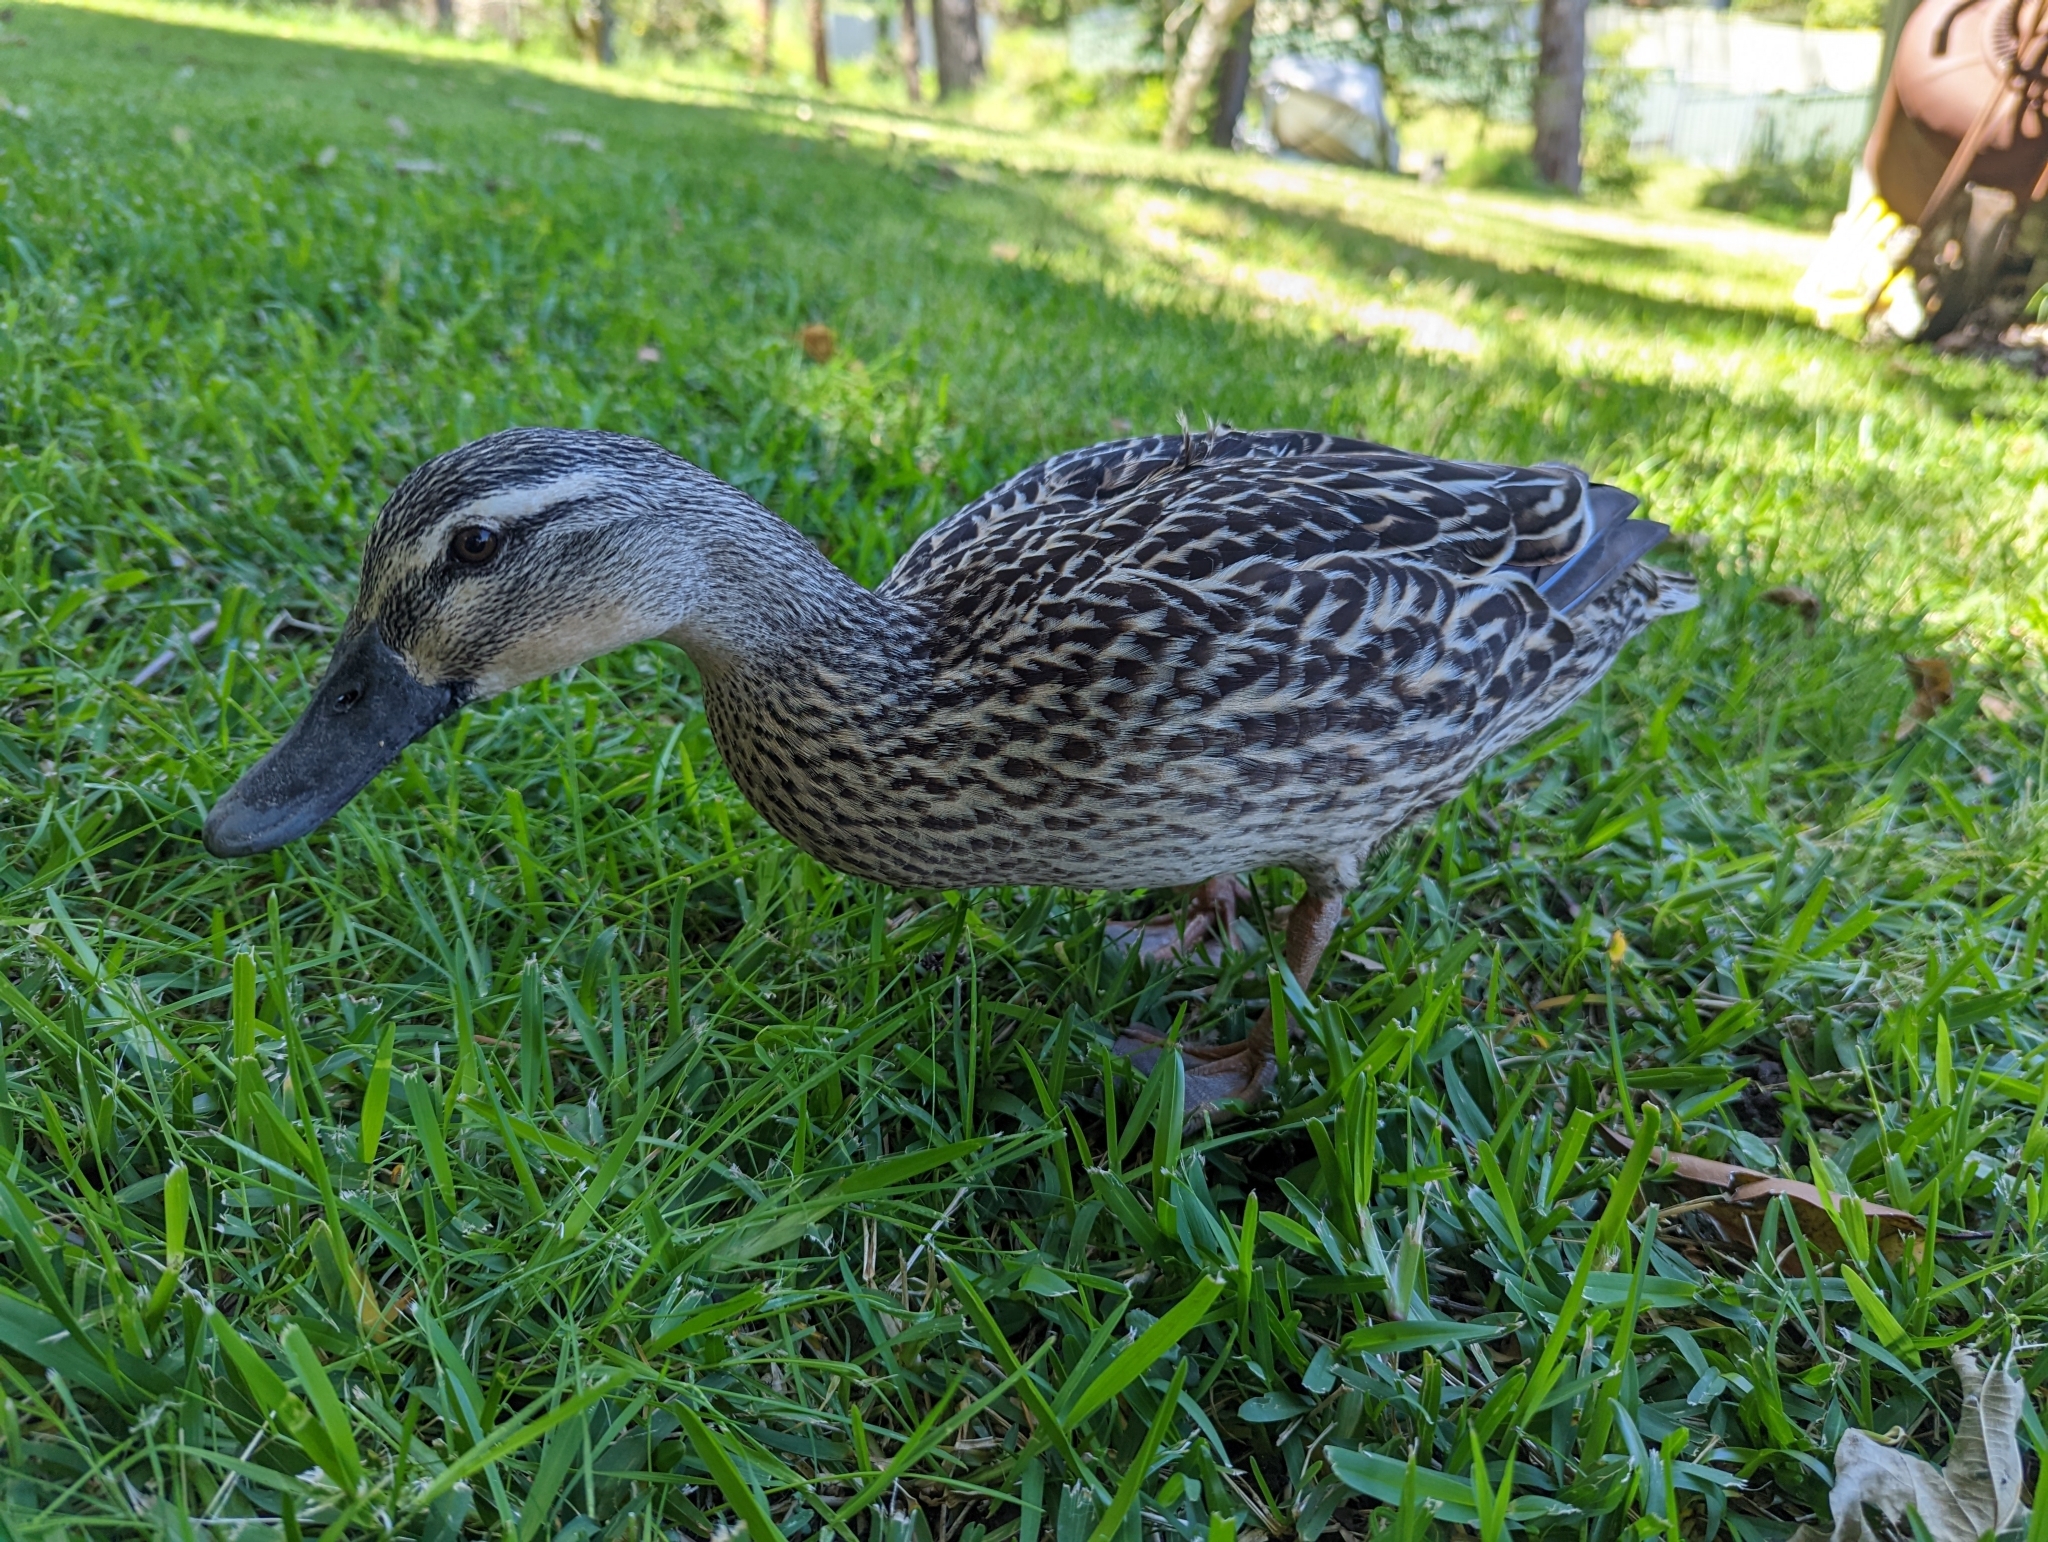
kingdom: Animalia
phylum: Chordata
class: Aves
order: Anseriformes
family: Anatidae
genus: Anas
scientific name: Anas platyrhynchos
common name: Mallard
